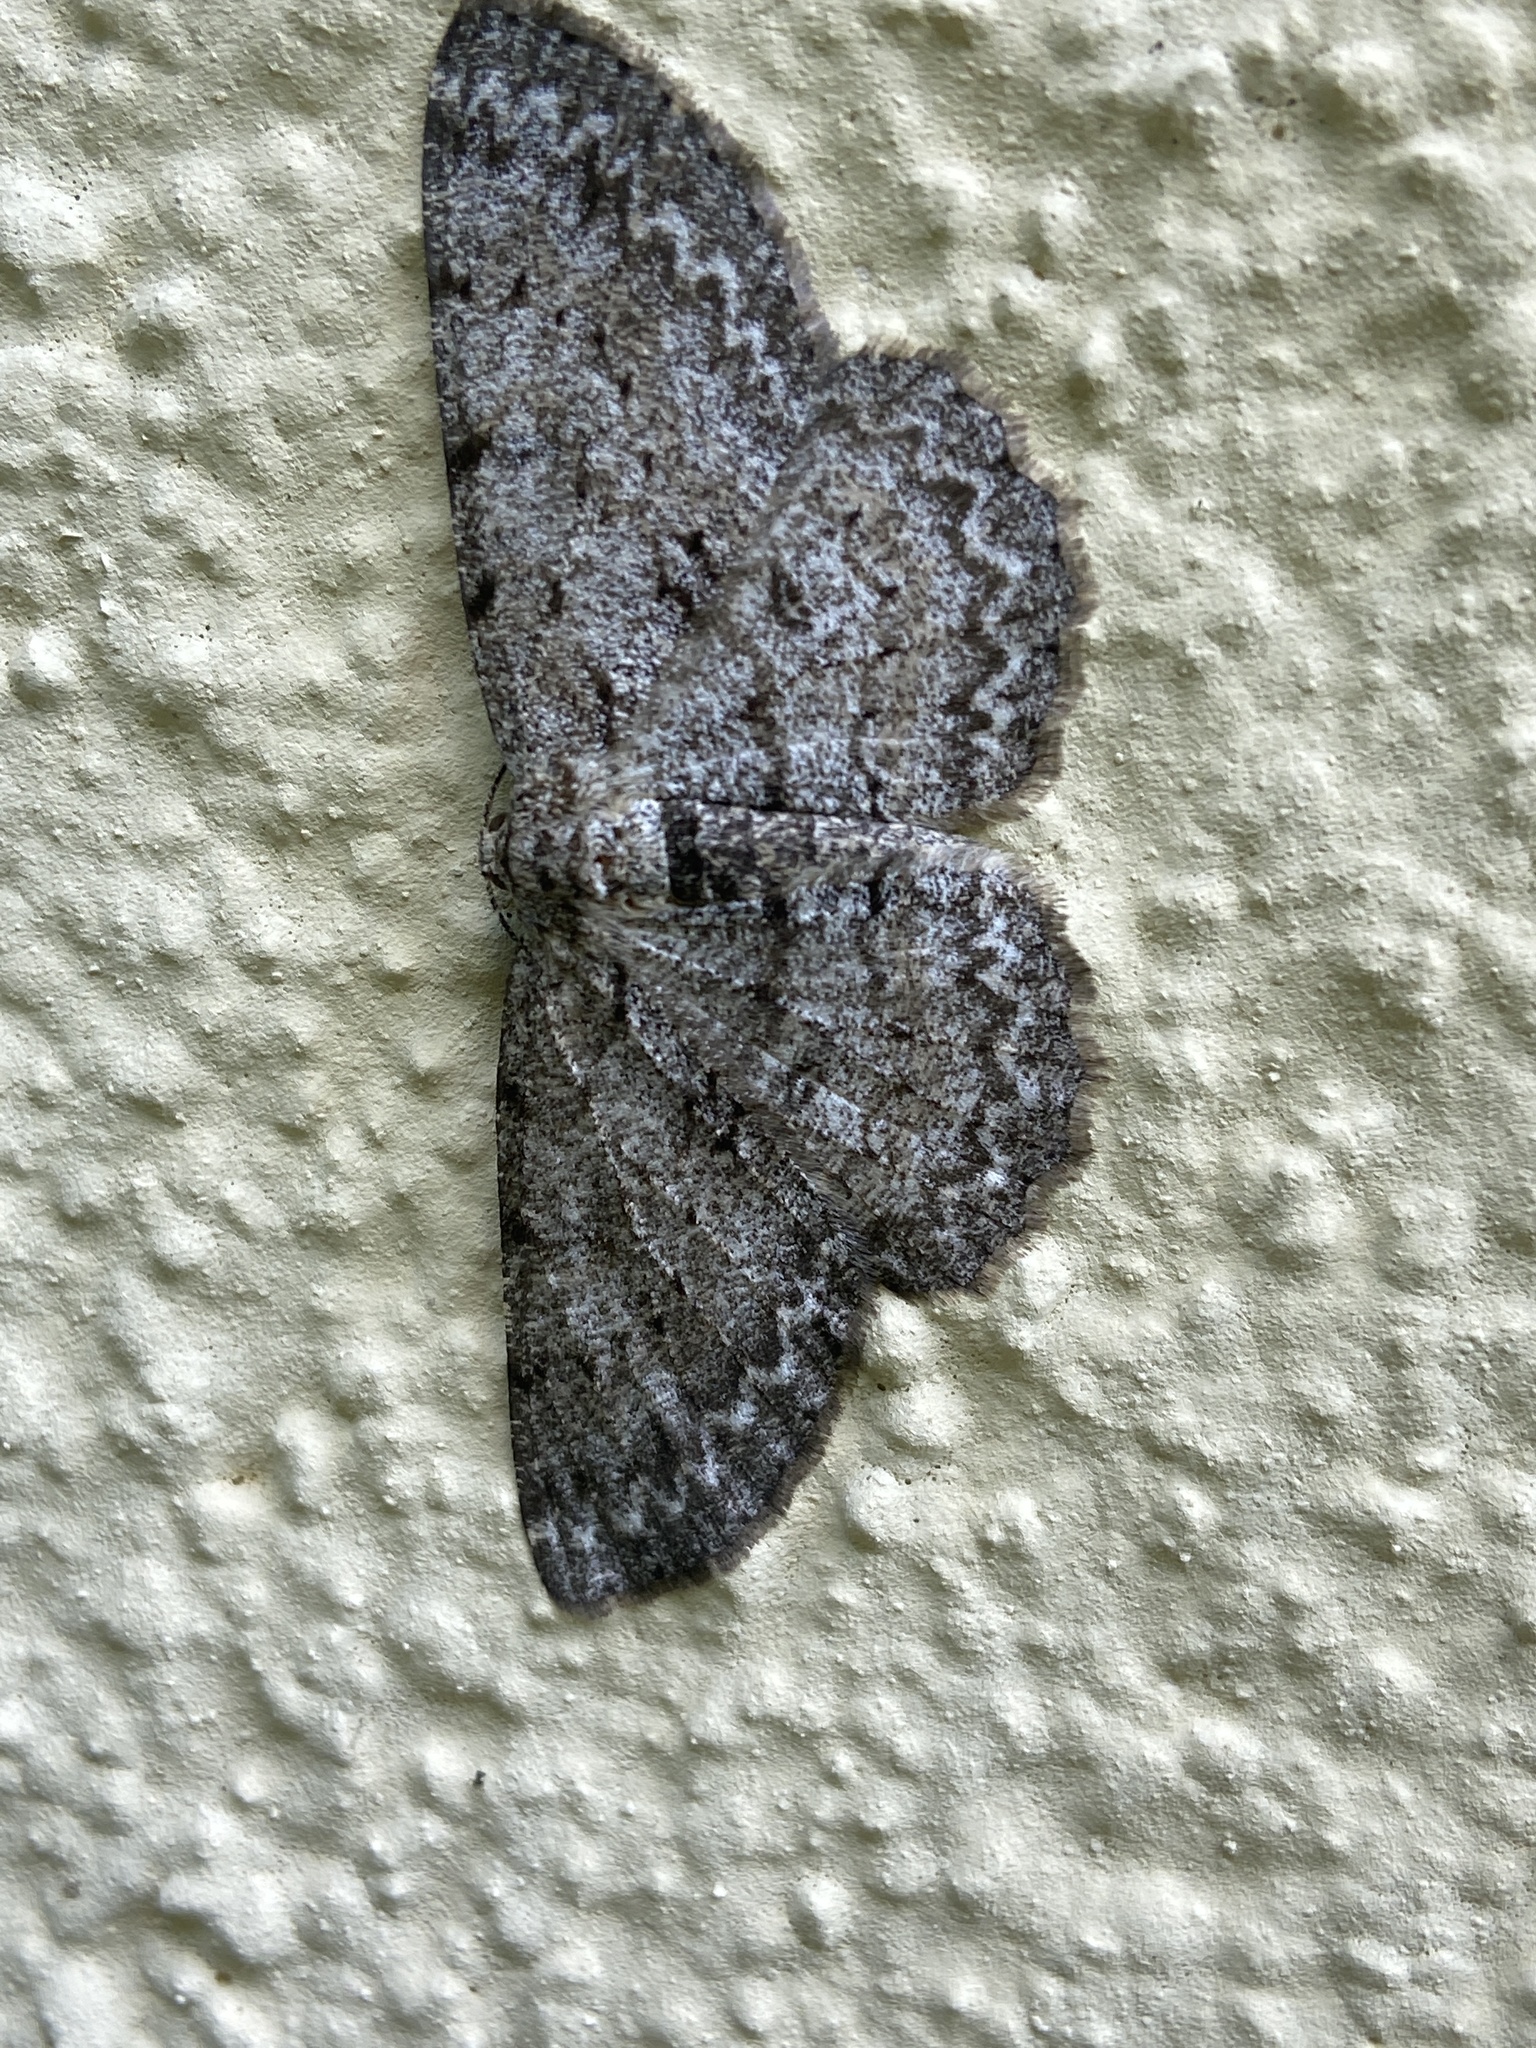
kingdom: Animalia
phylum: Arthropoda
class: Insecta
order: Lepidoptera
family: Geometridae
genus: Hypomecis
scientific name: Hypomecis punctinalis
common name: Pale oak beauty
